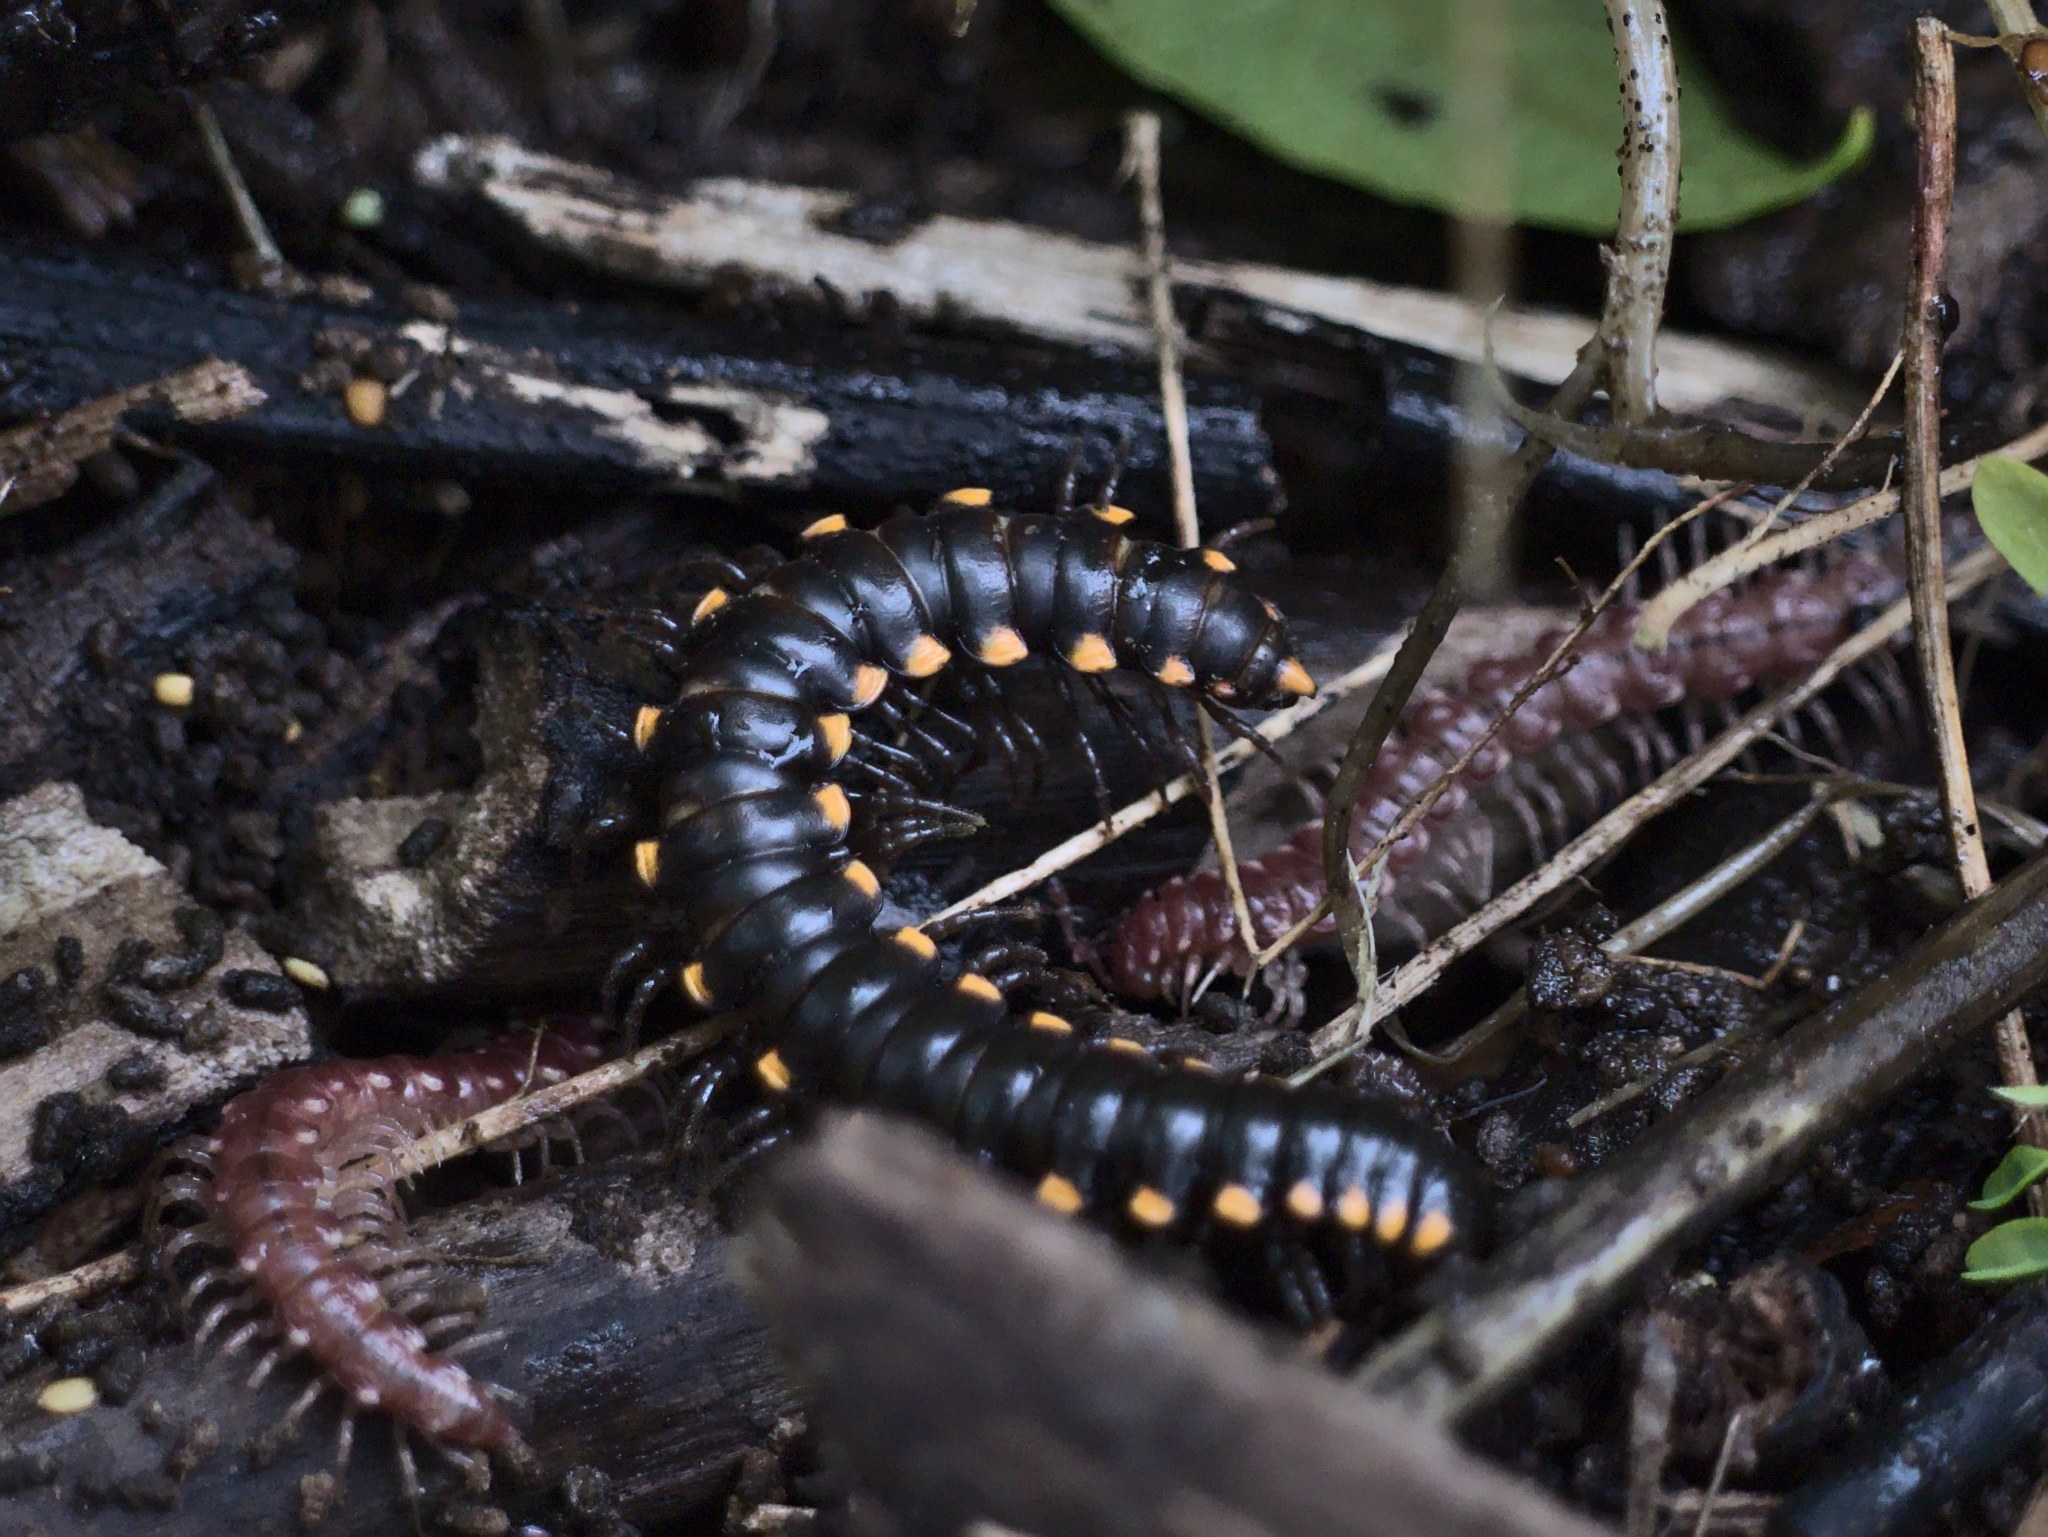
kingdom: Animalia
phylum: Arthropoda
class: Diplopoda
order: Polydesmida
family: Xystodesmidae
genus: Harpaphe
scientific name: Harpaphe haydeniana
